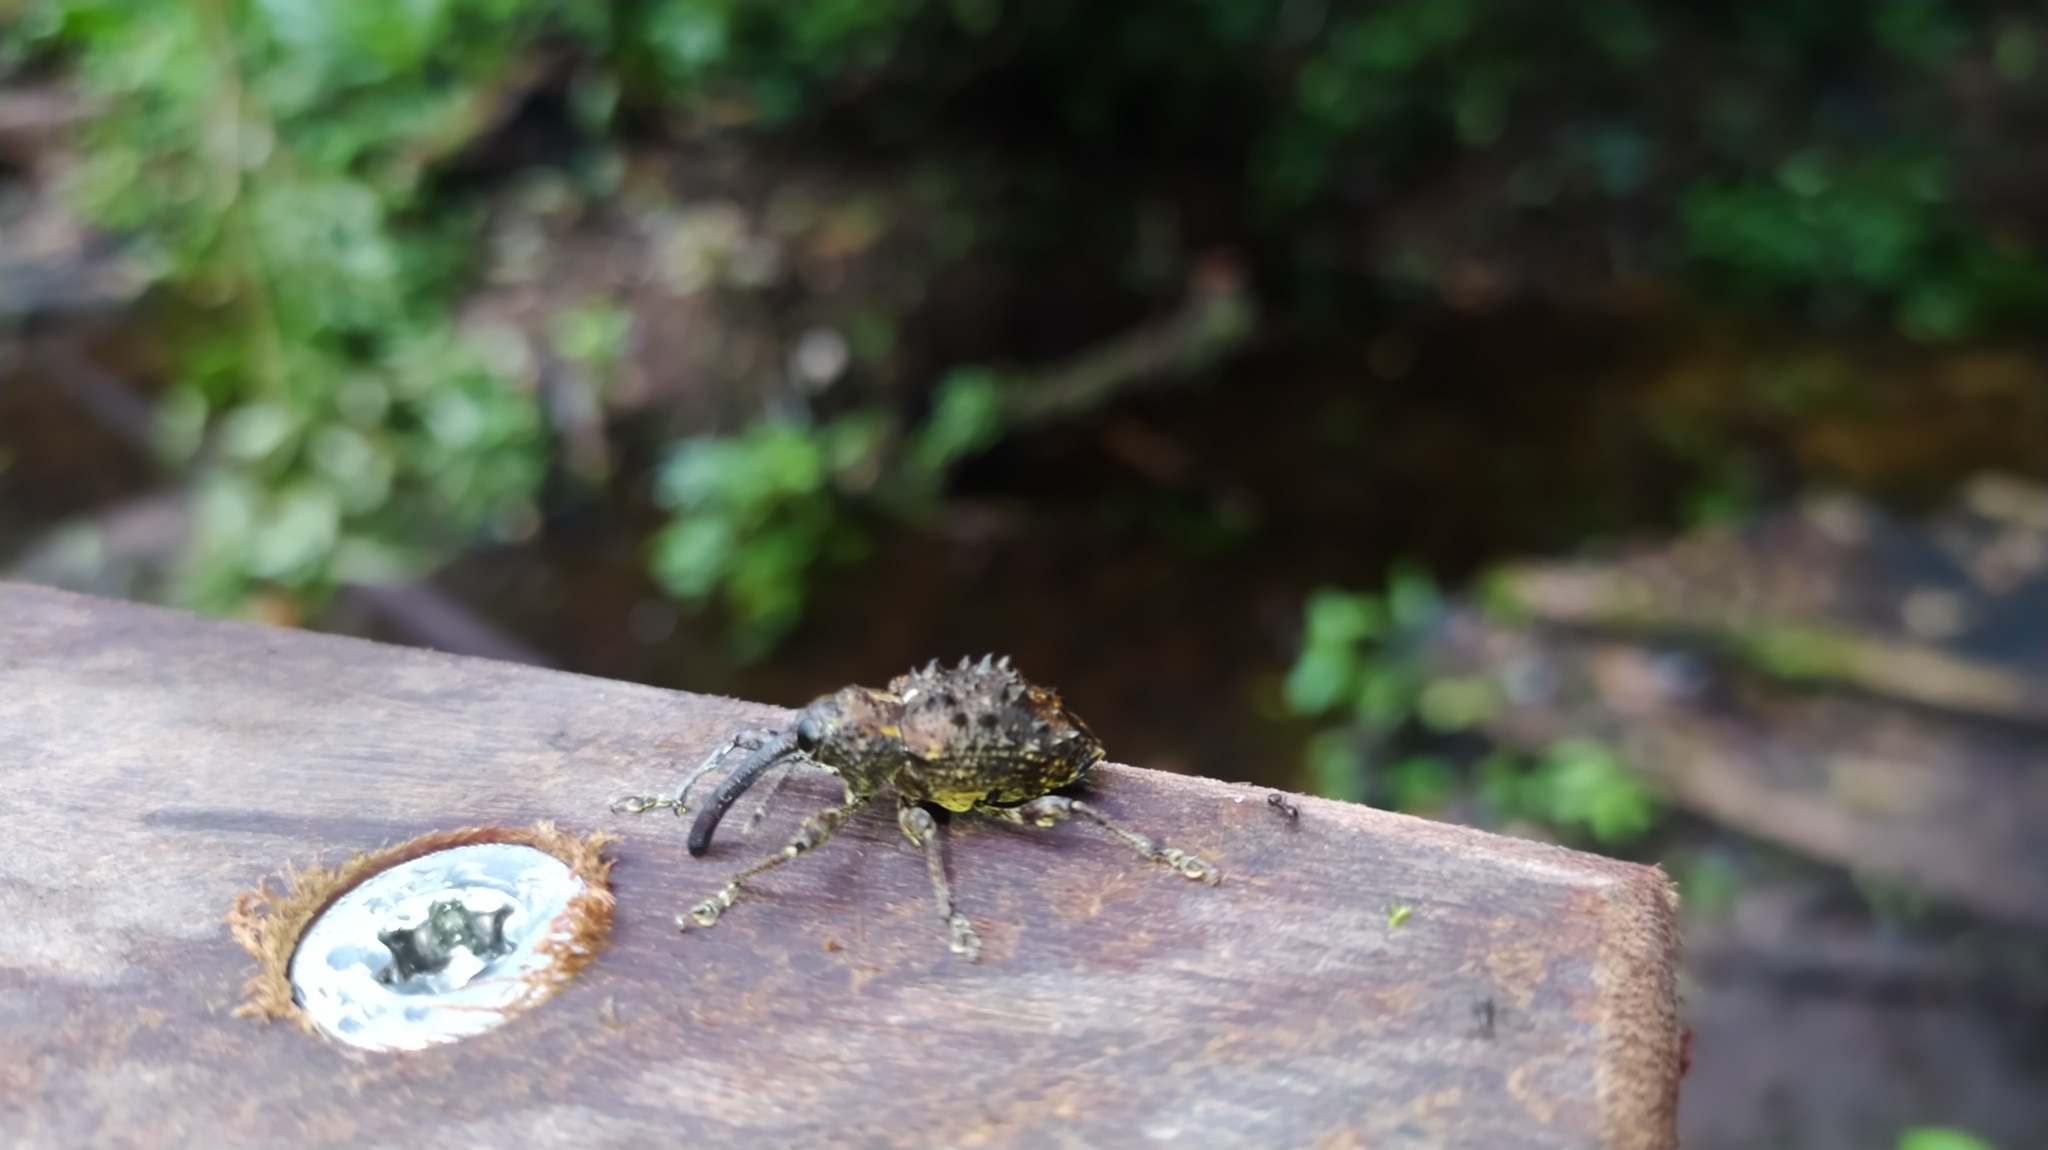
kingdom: Animalia
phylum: Arthropoda
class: Insecta
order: Coleoptera
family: Curculionidae
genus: Heilipodus
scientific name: Heilipodus echinatus
